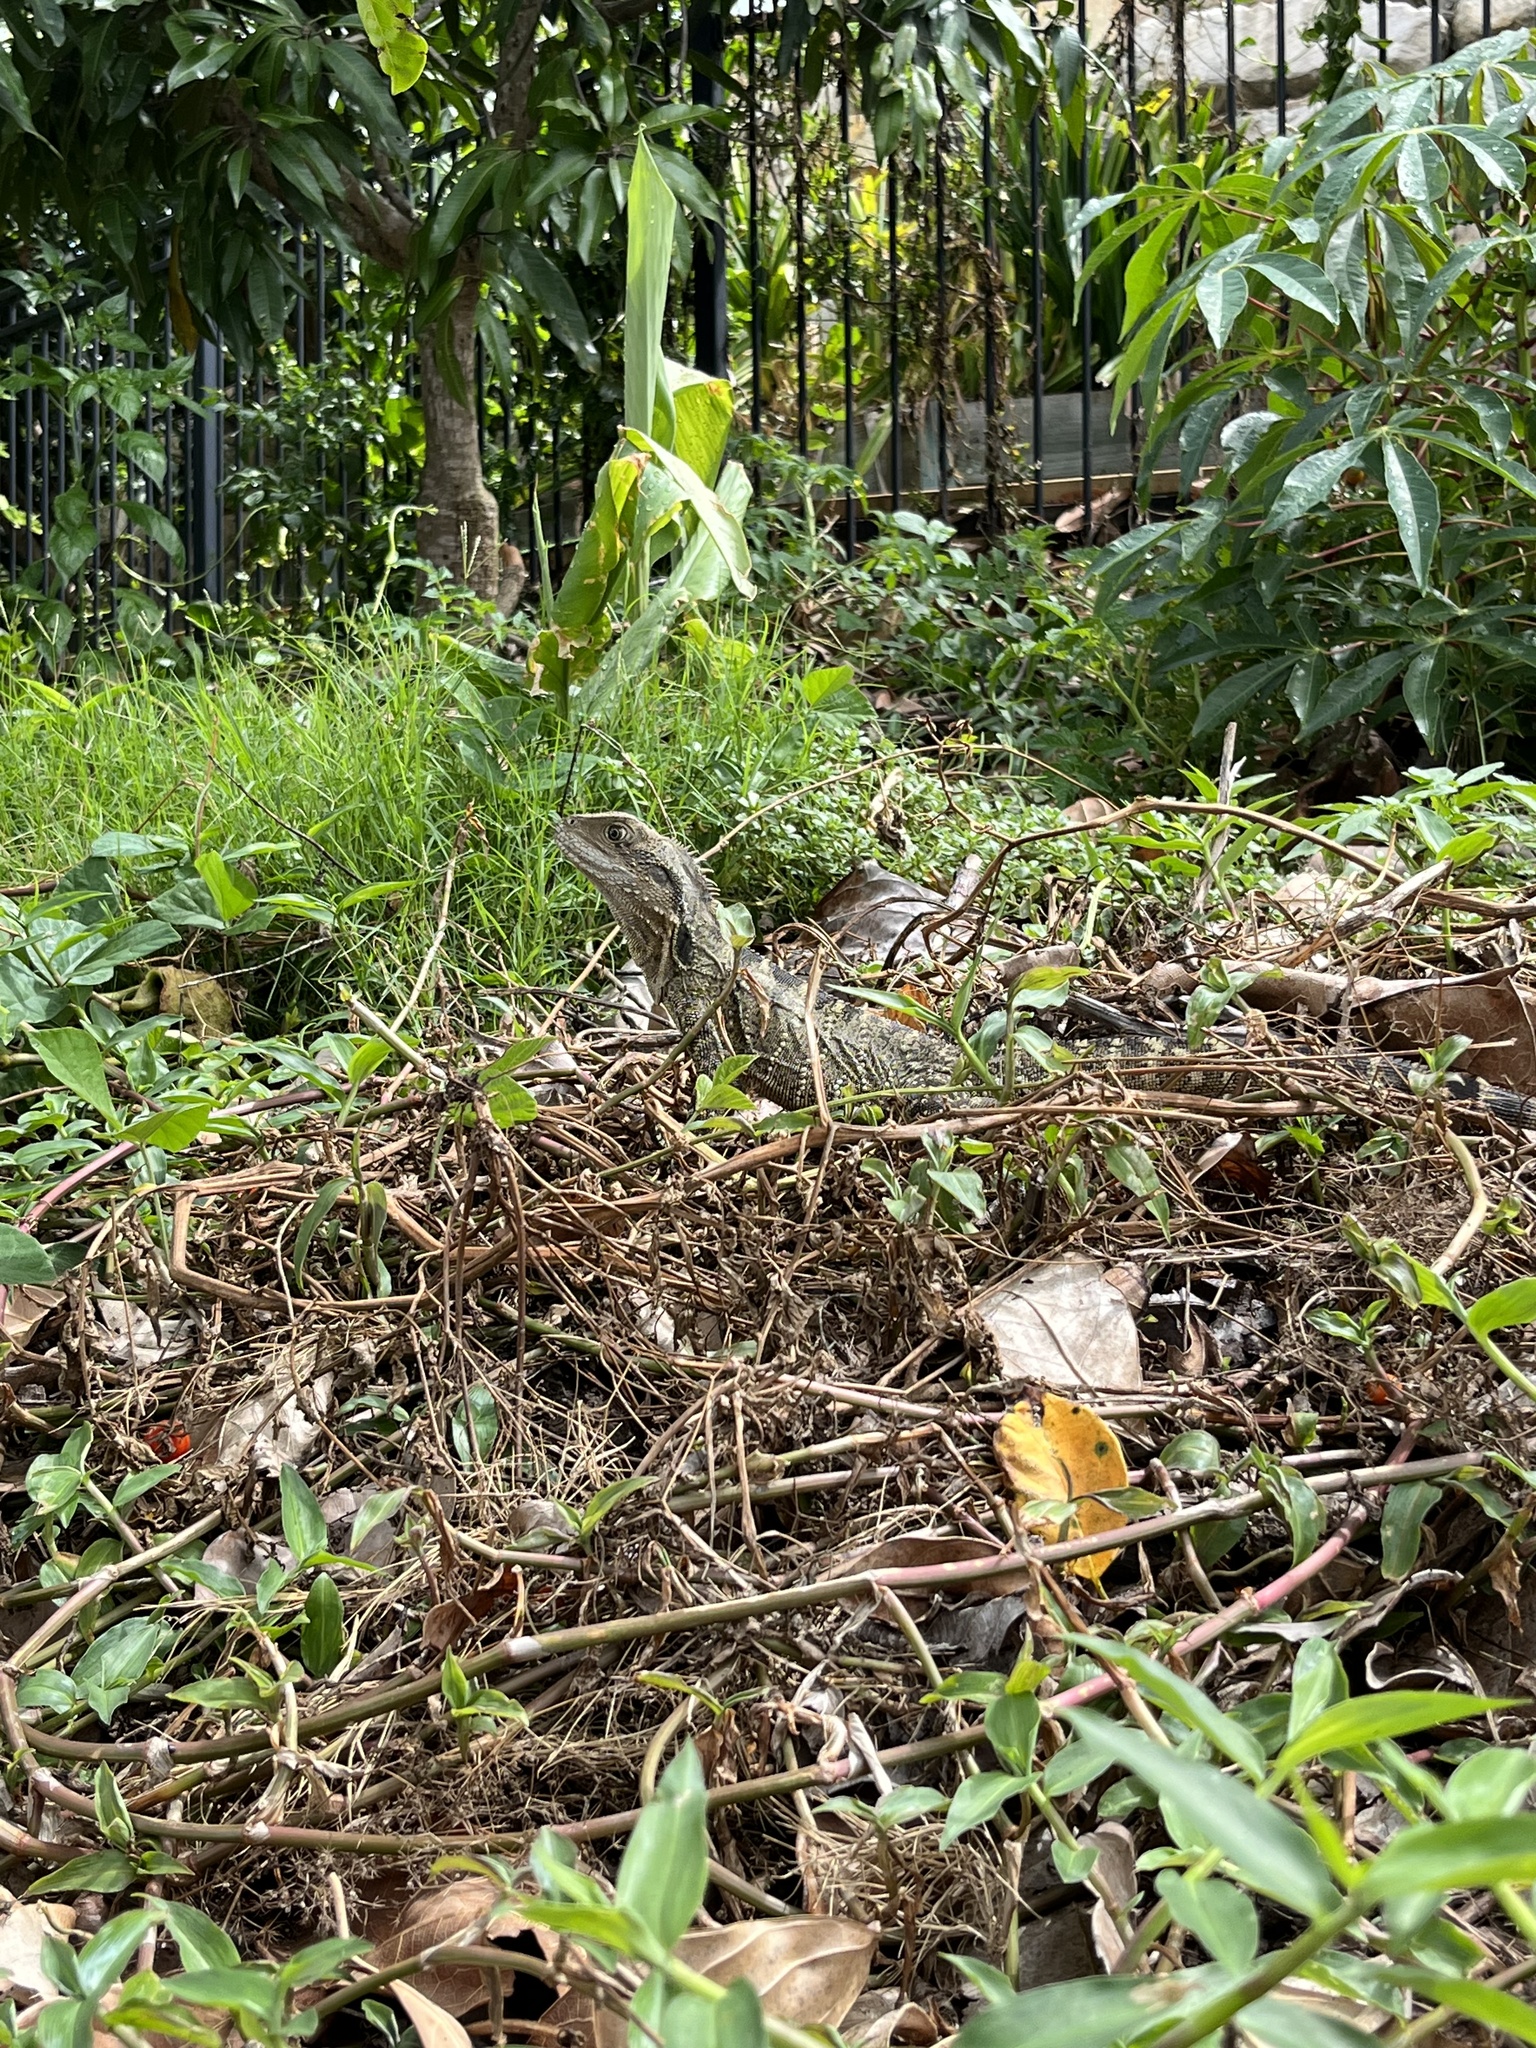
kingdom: Animalia
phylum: Chordata
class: Squamata
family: Agamidae
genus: Intellagama
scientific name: Intellagama lesueurii
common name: Eastern water dragon
